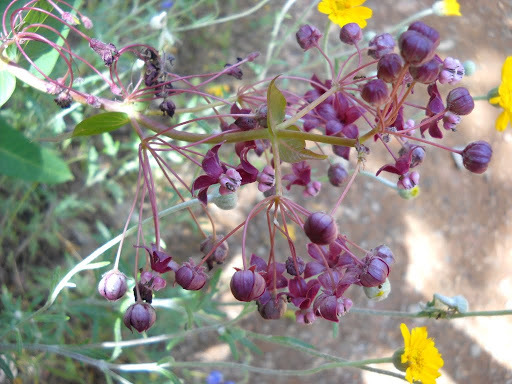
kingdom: Plantae
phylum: Tracheophyta
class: Magnoliopsida
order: Gentianales
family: Apocynaceae
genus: Asclepias
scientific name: Asclepias cordifolia
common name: Purple milkweed
